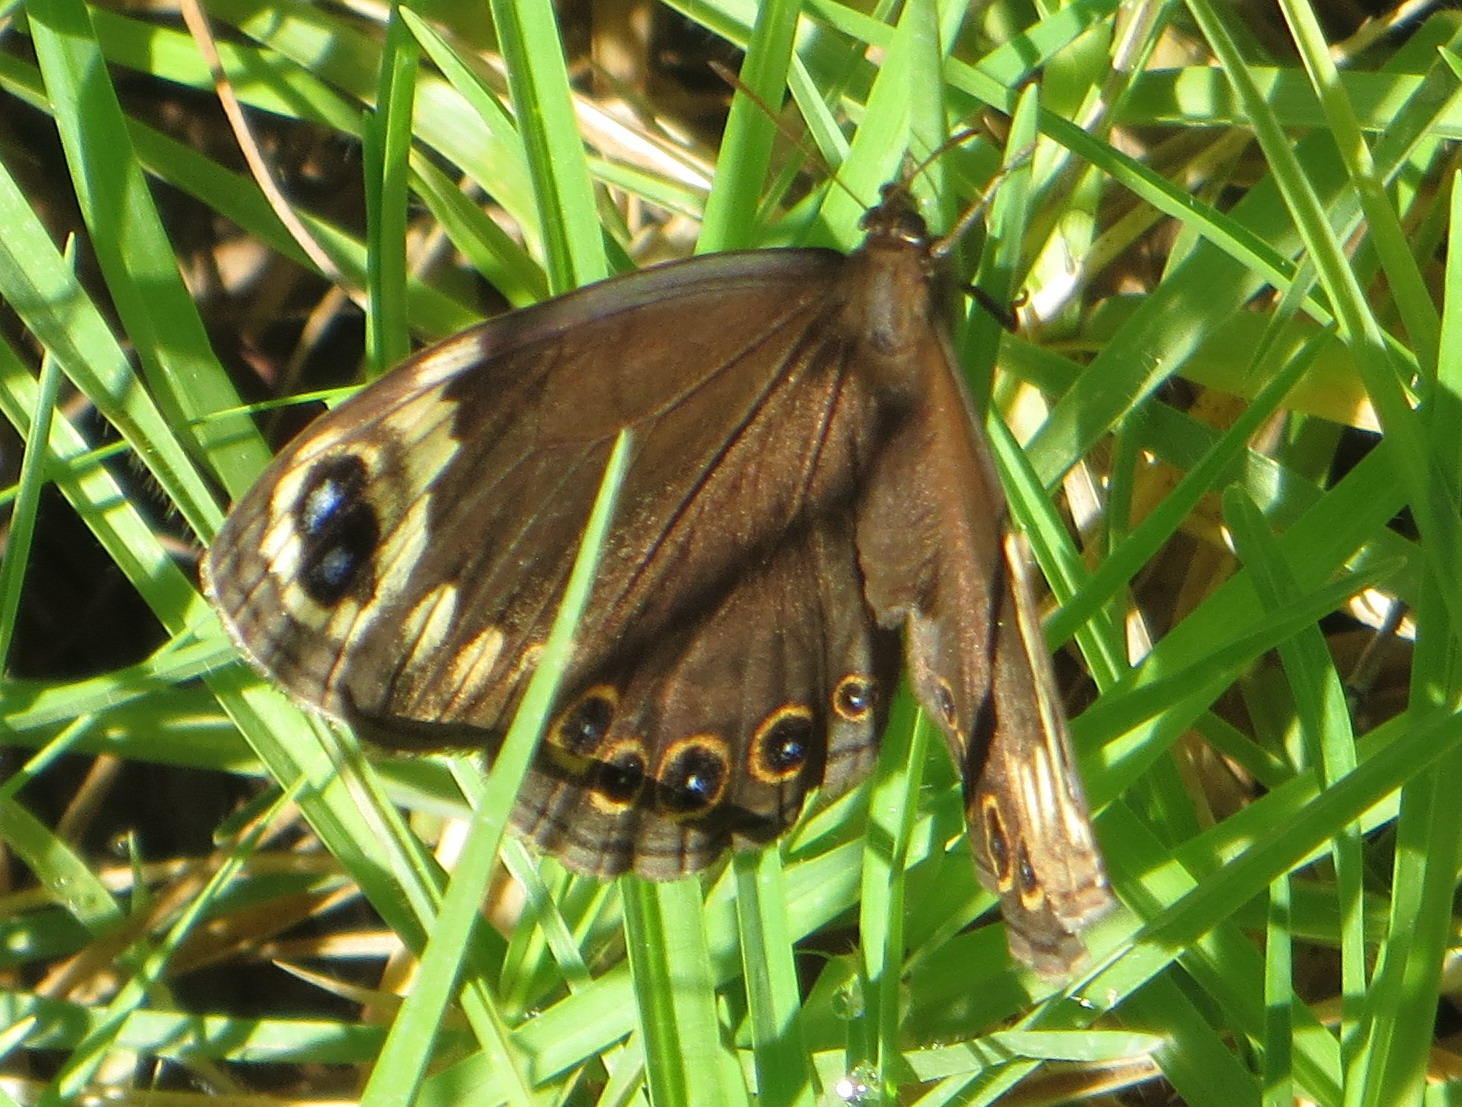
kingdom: Animalia
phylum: Arthropoda
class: Insecta
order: Lepidoptera
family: Nymphalidae
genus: Dira
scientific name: Dira clytus
